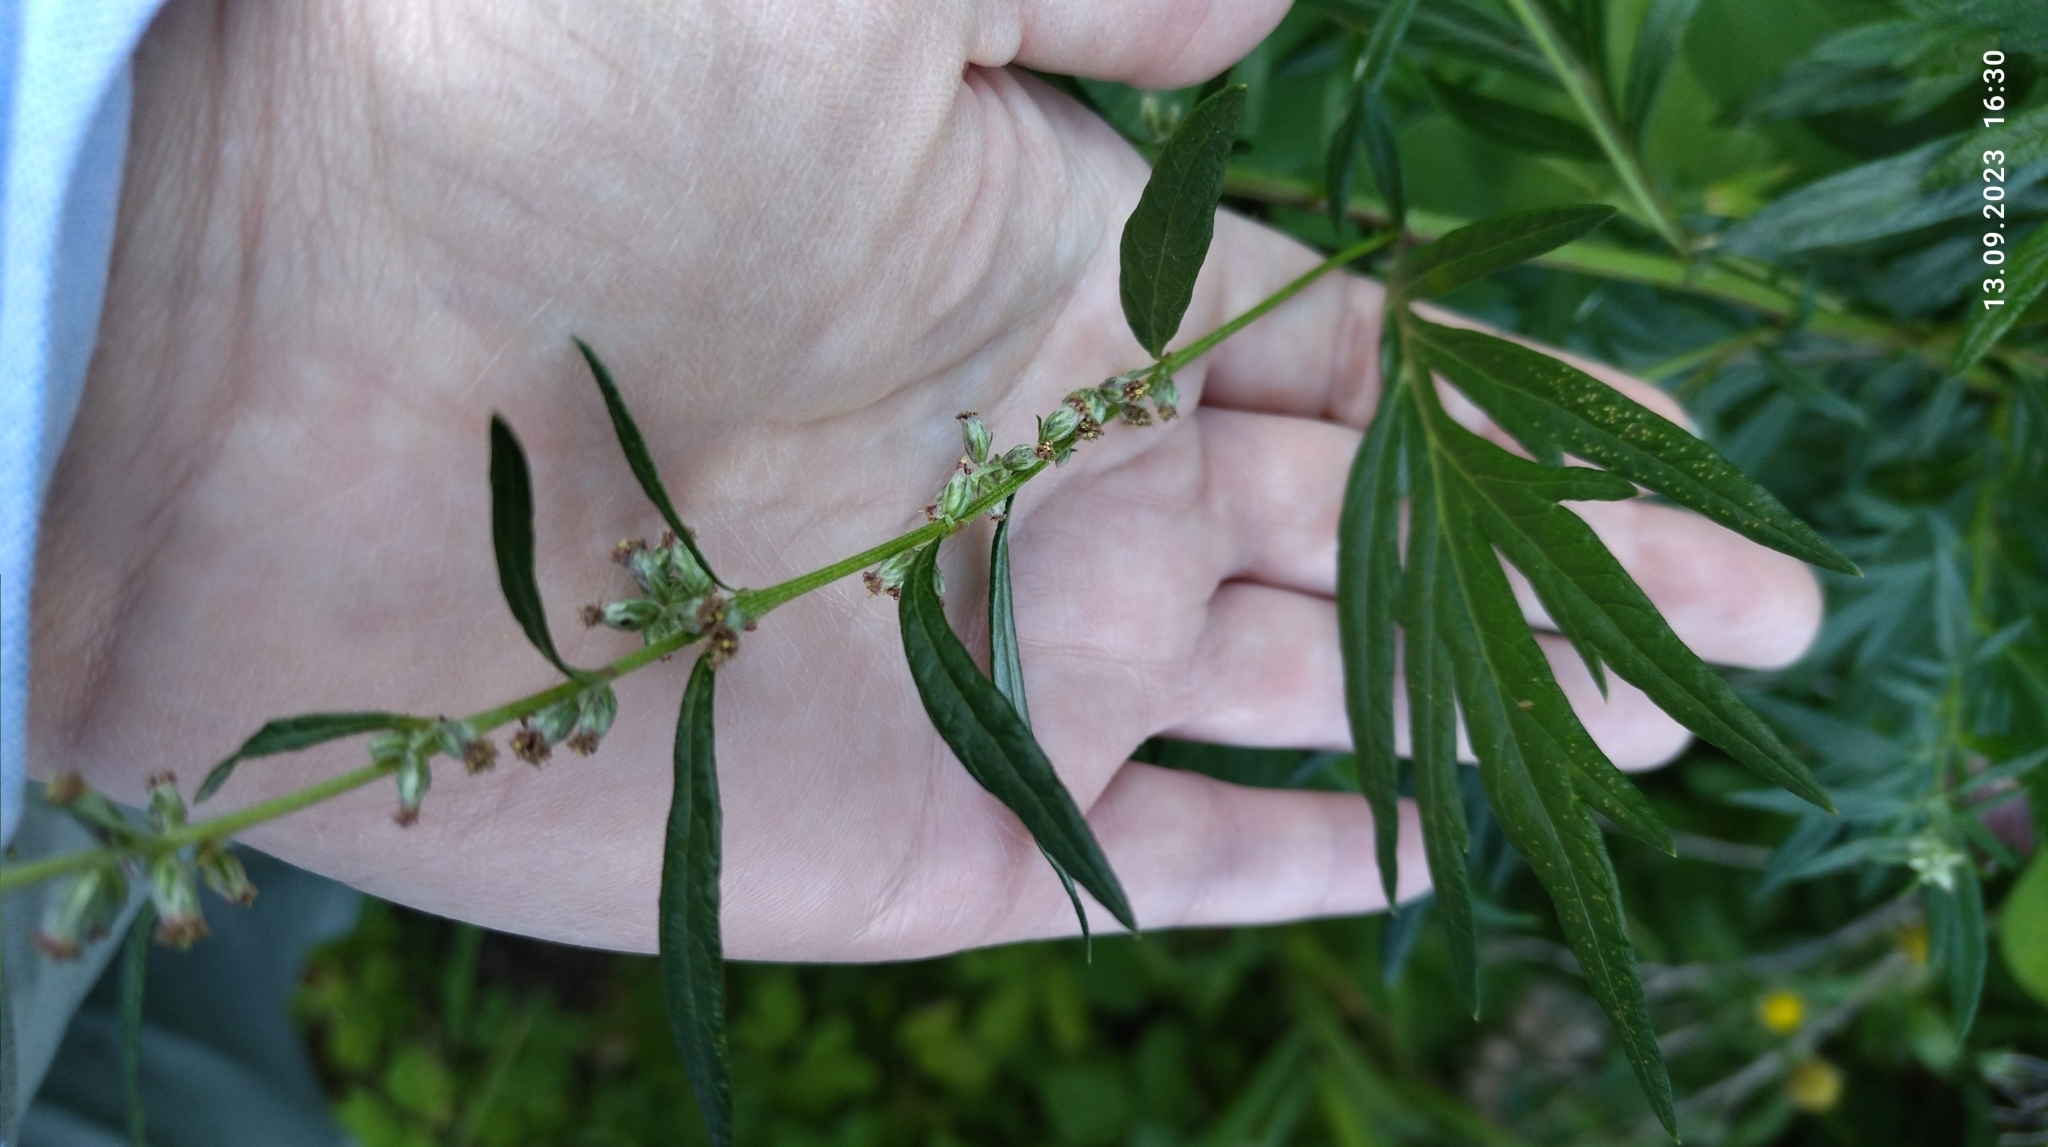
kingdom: Plantae
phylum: Tracheophyta
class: Magnoliopsida
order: Asterales
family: Asteraceae
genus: Artemisia
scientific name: Artemisia vulgaris
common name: Mugwort
